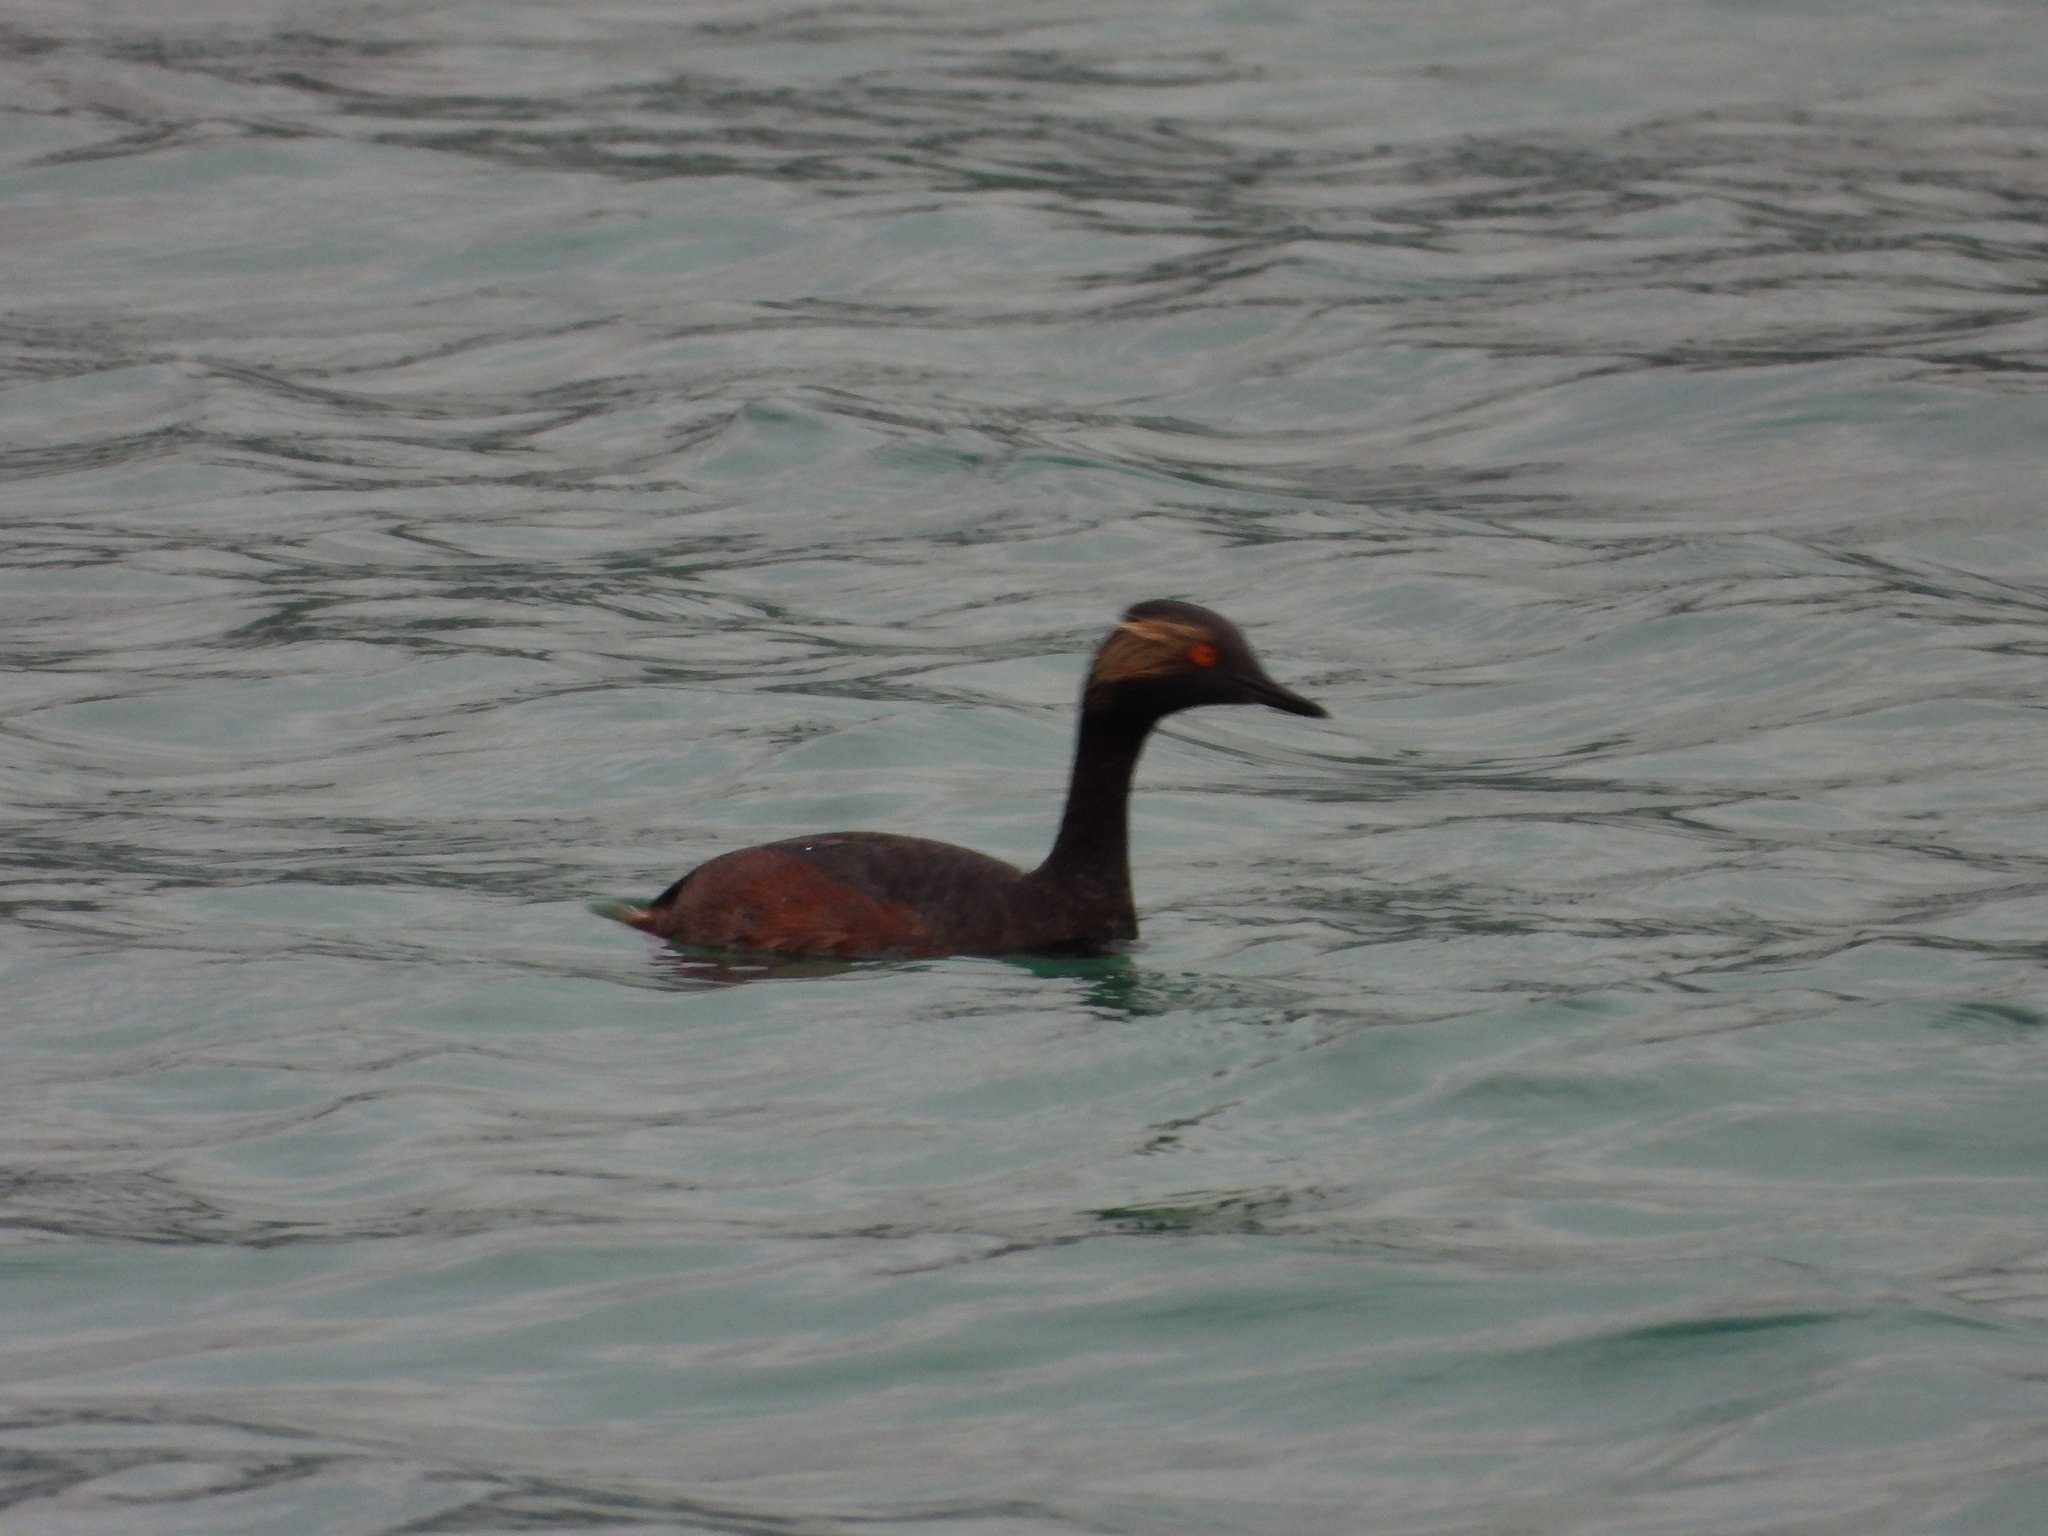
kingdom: Animalia
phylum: Chordata
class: Aves
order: Podicipediformes
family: Podicipedidae
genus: Podiceps
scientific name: Podiceps nigricollis
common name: Black-necked grebe
